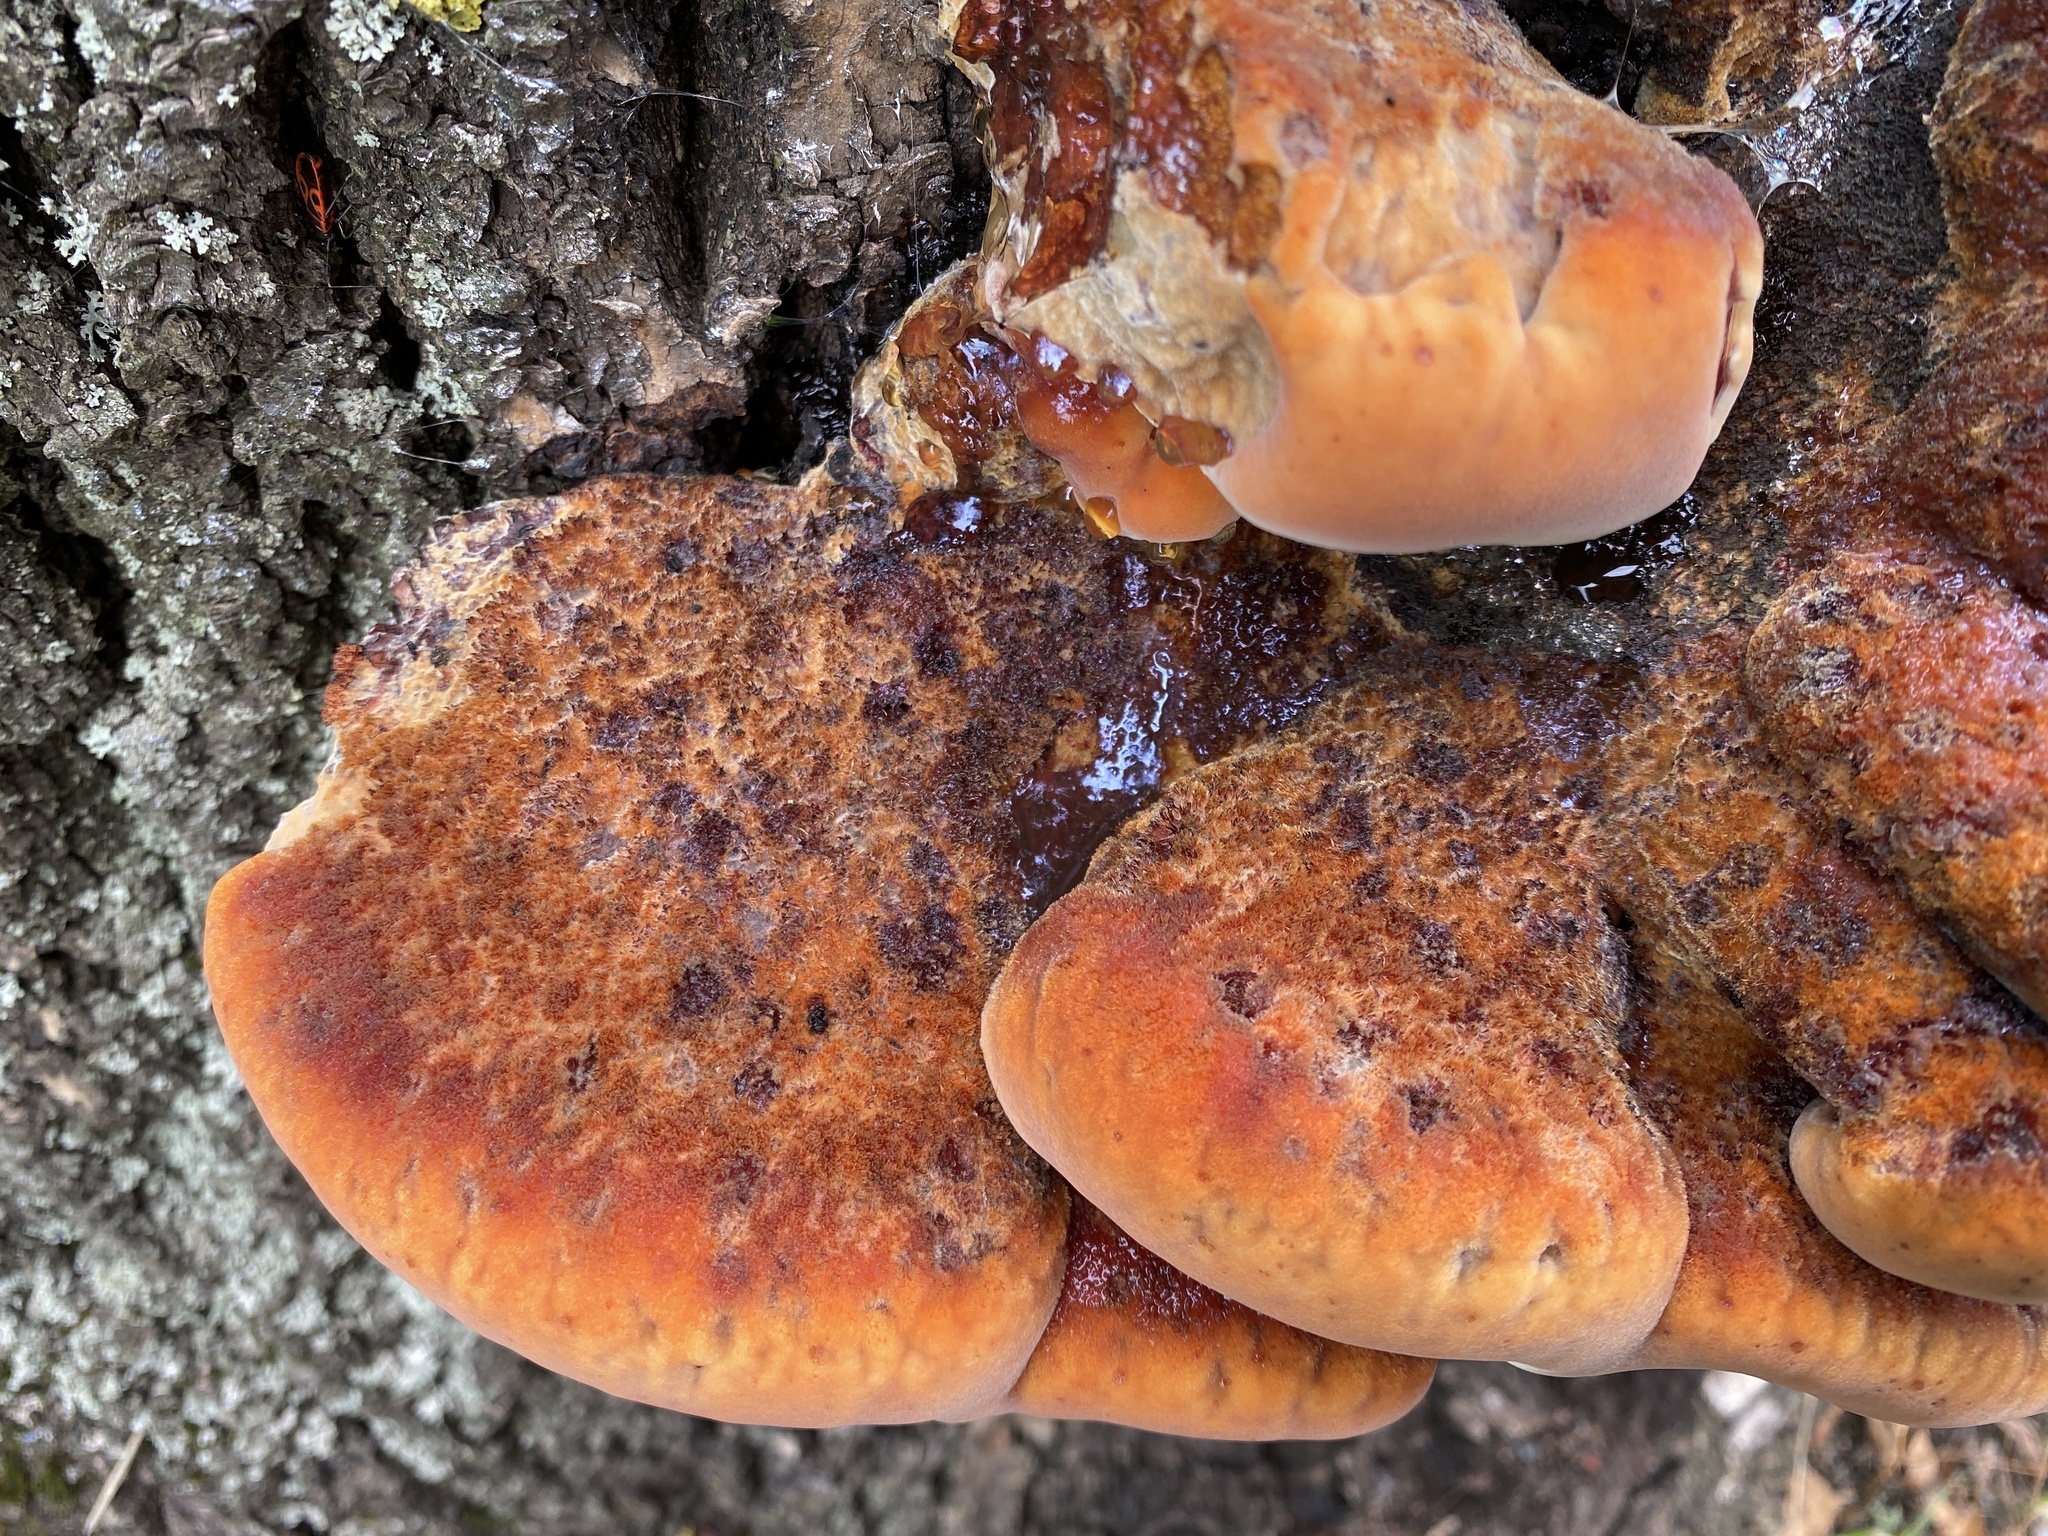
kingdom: Fungi
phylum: Basidiomycota
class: Agaricomycetes
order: Hymenochaetales
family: Hymenochaetaceae
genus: Inonotus
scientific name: Inonotus hispidus
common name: Shaggy bracket
